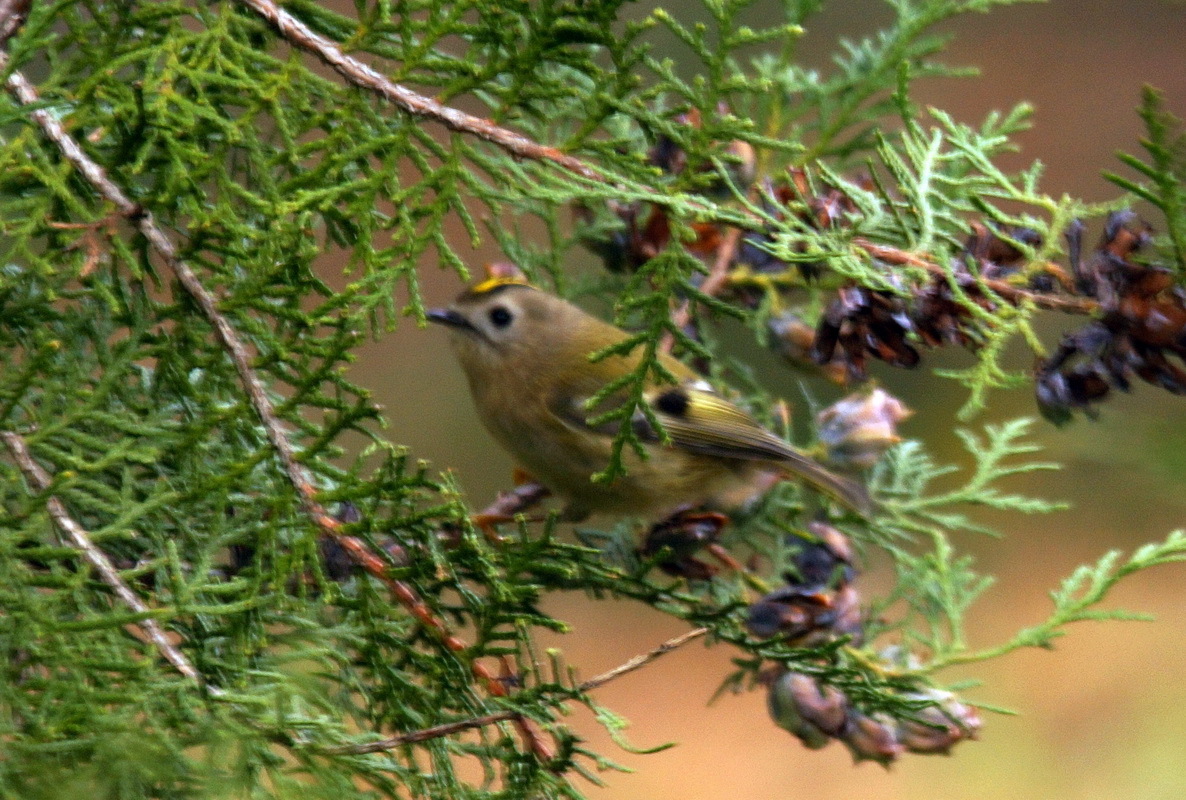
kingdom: Animalia
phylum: Chordata
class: Aves
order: Passeriformes
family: Regulidae
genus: Regulus
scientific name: Regulus regulus
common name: Goldcrest
